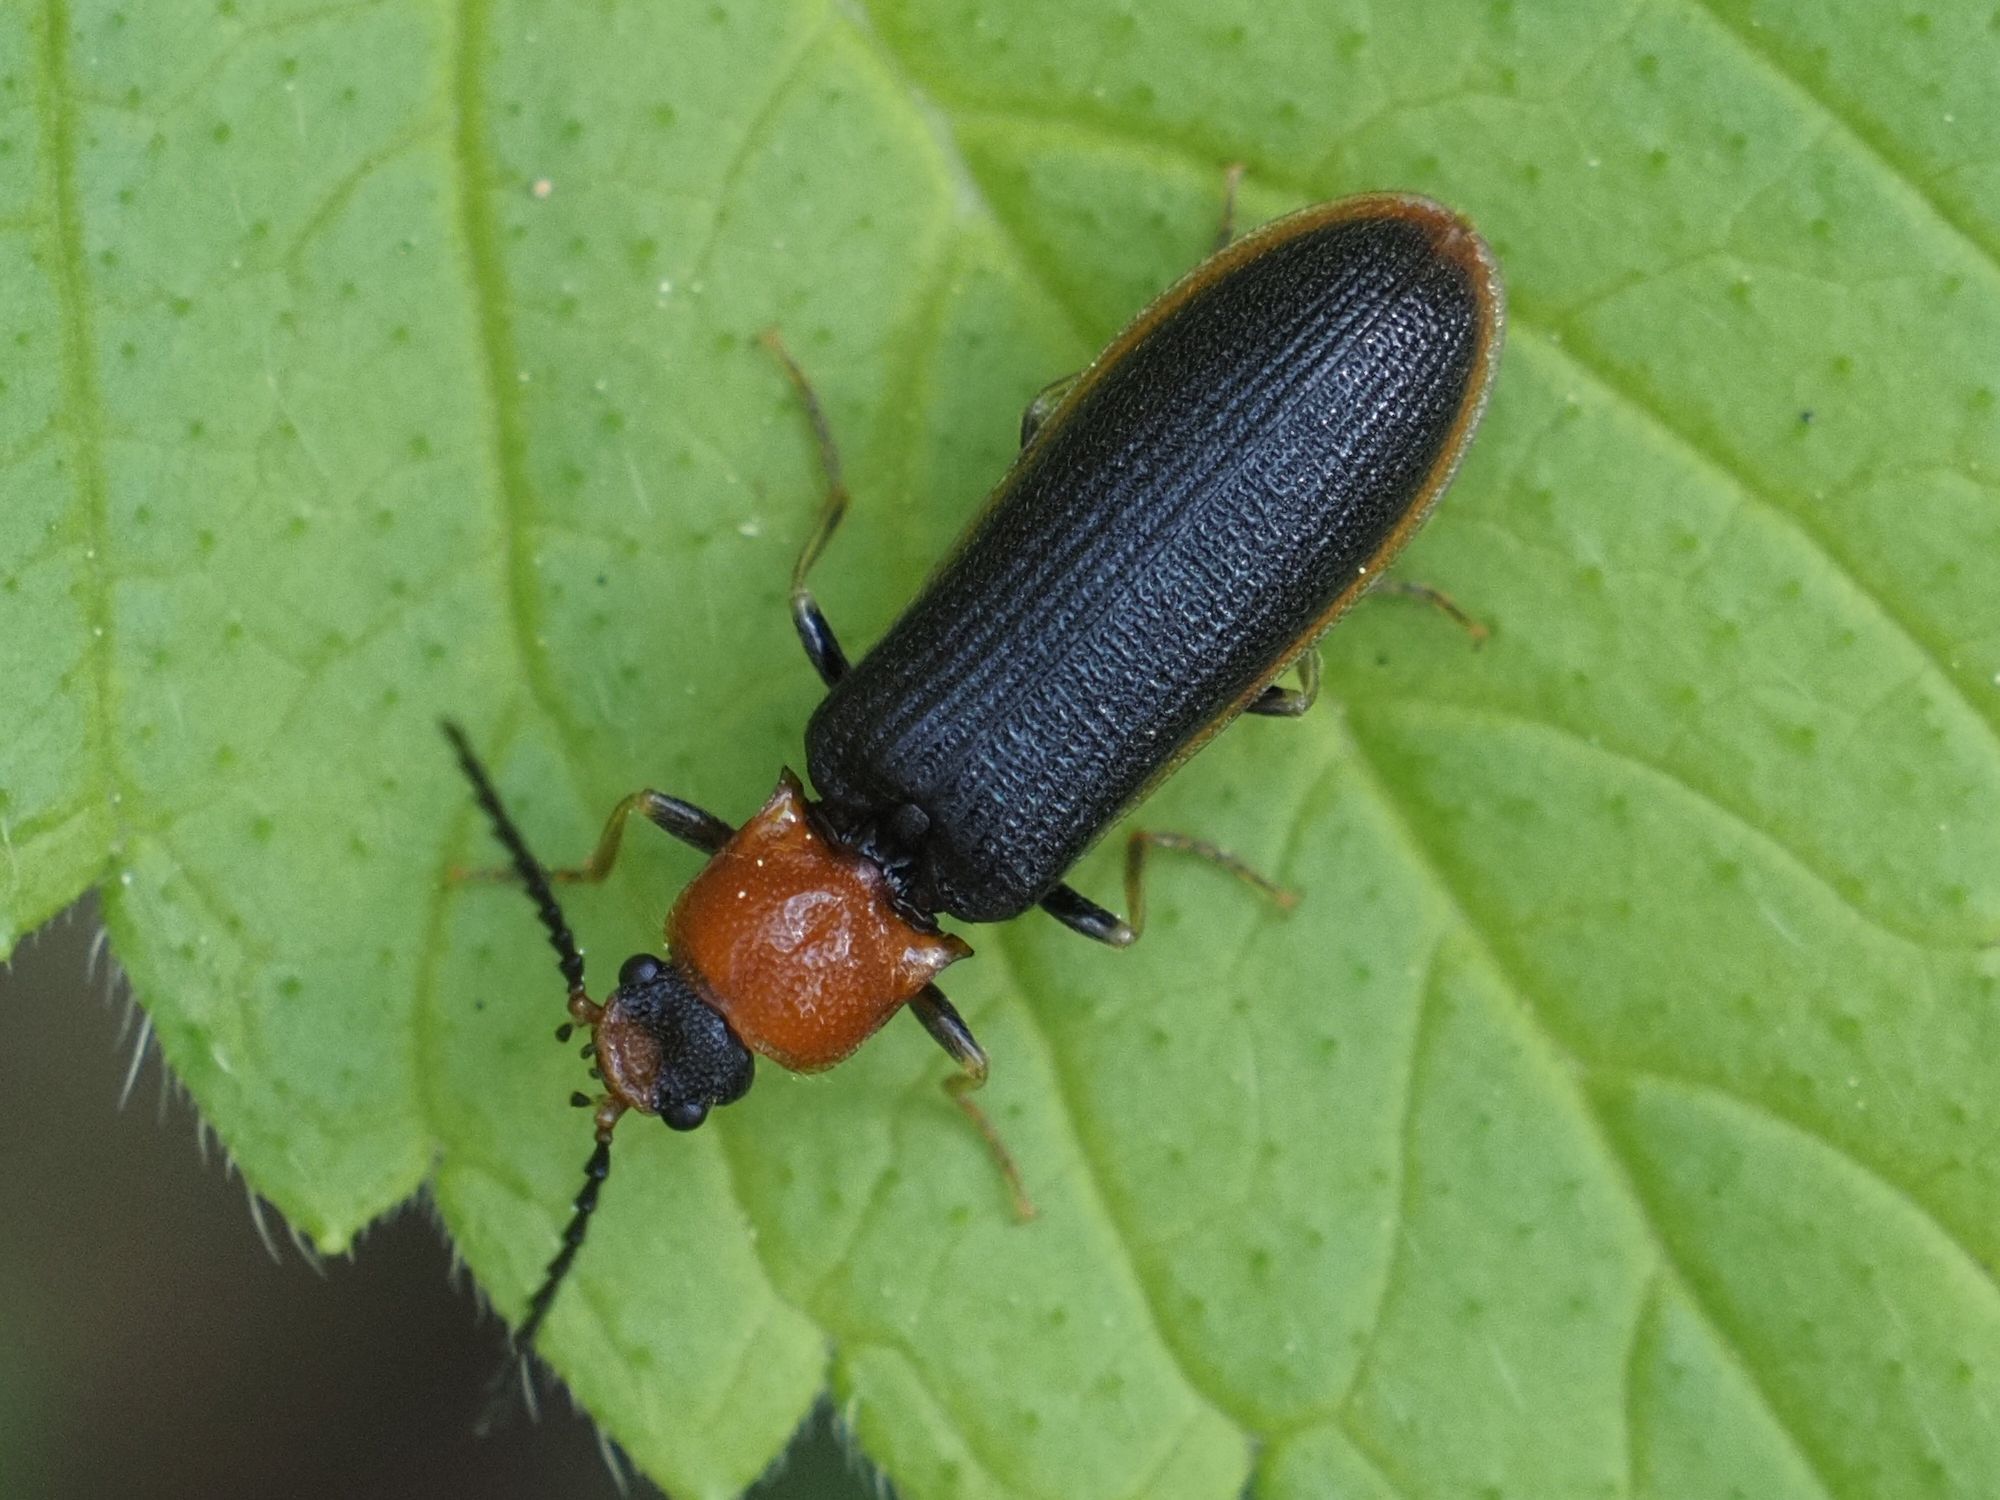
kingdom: Animalia
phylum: Arthropoda
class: Insecta
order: Coleoptera
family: Elateridae
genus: Denticollis
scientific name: Denticollis linearis
